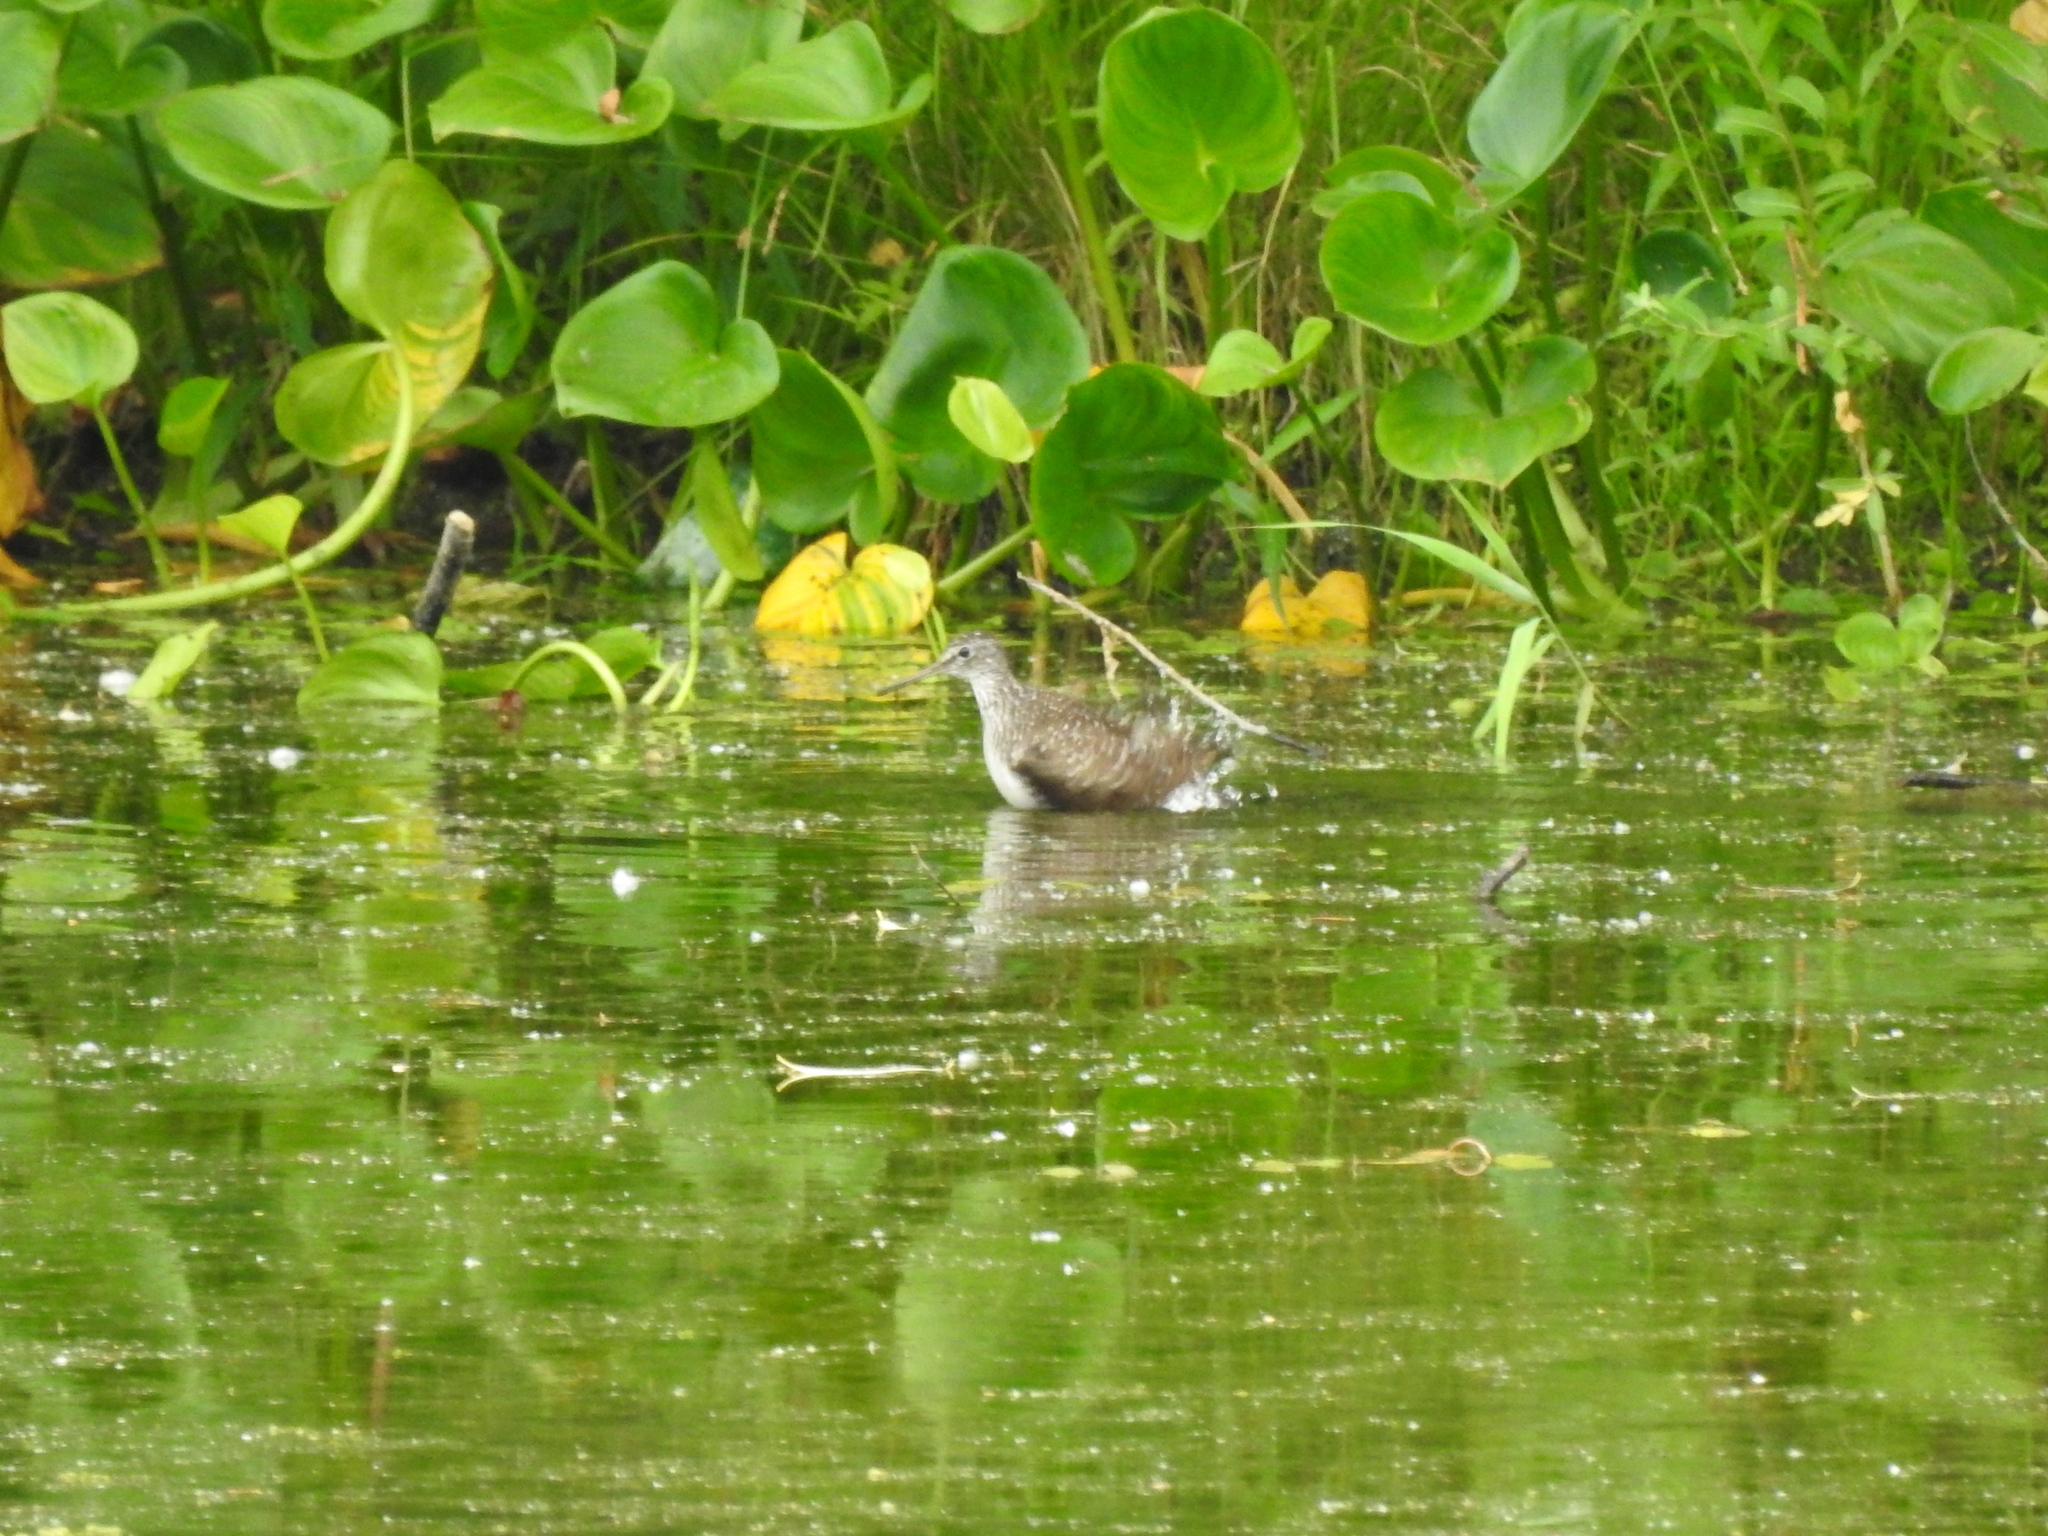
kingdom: Animalia
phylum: Chordata
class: Aves
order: Charadriiformes
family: Scolopacidae
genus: Tringa
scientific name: Tringa ochropus
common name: Green sandpiper
